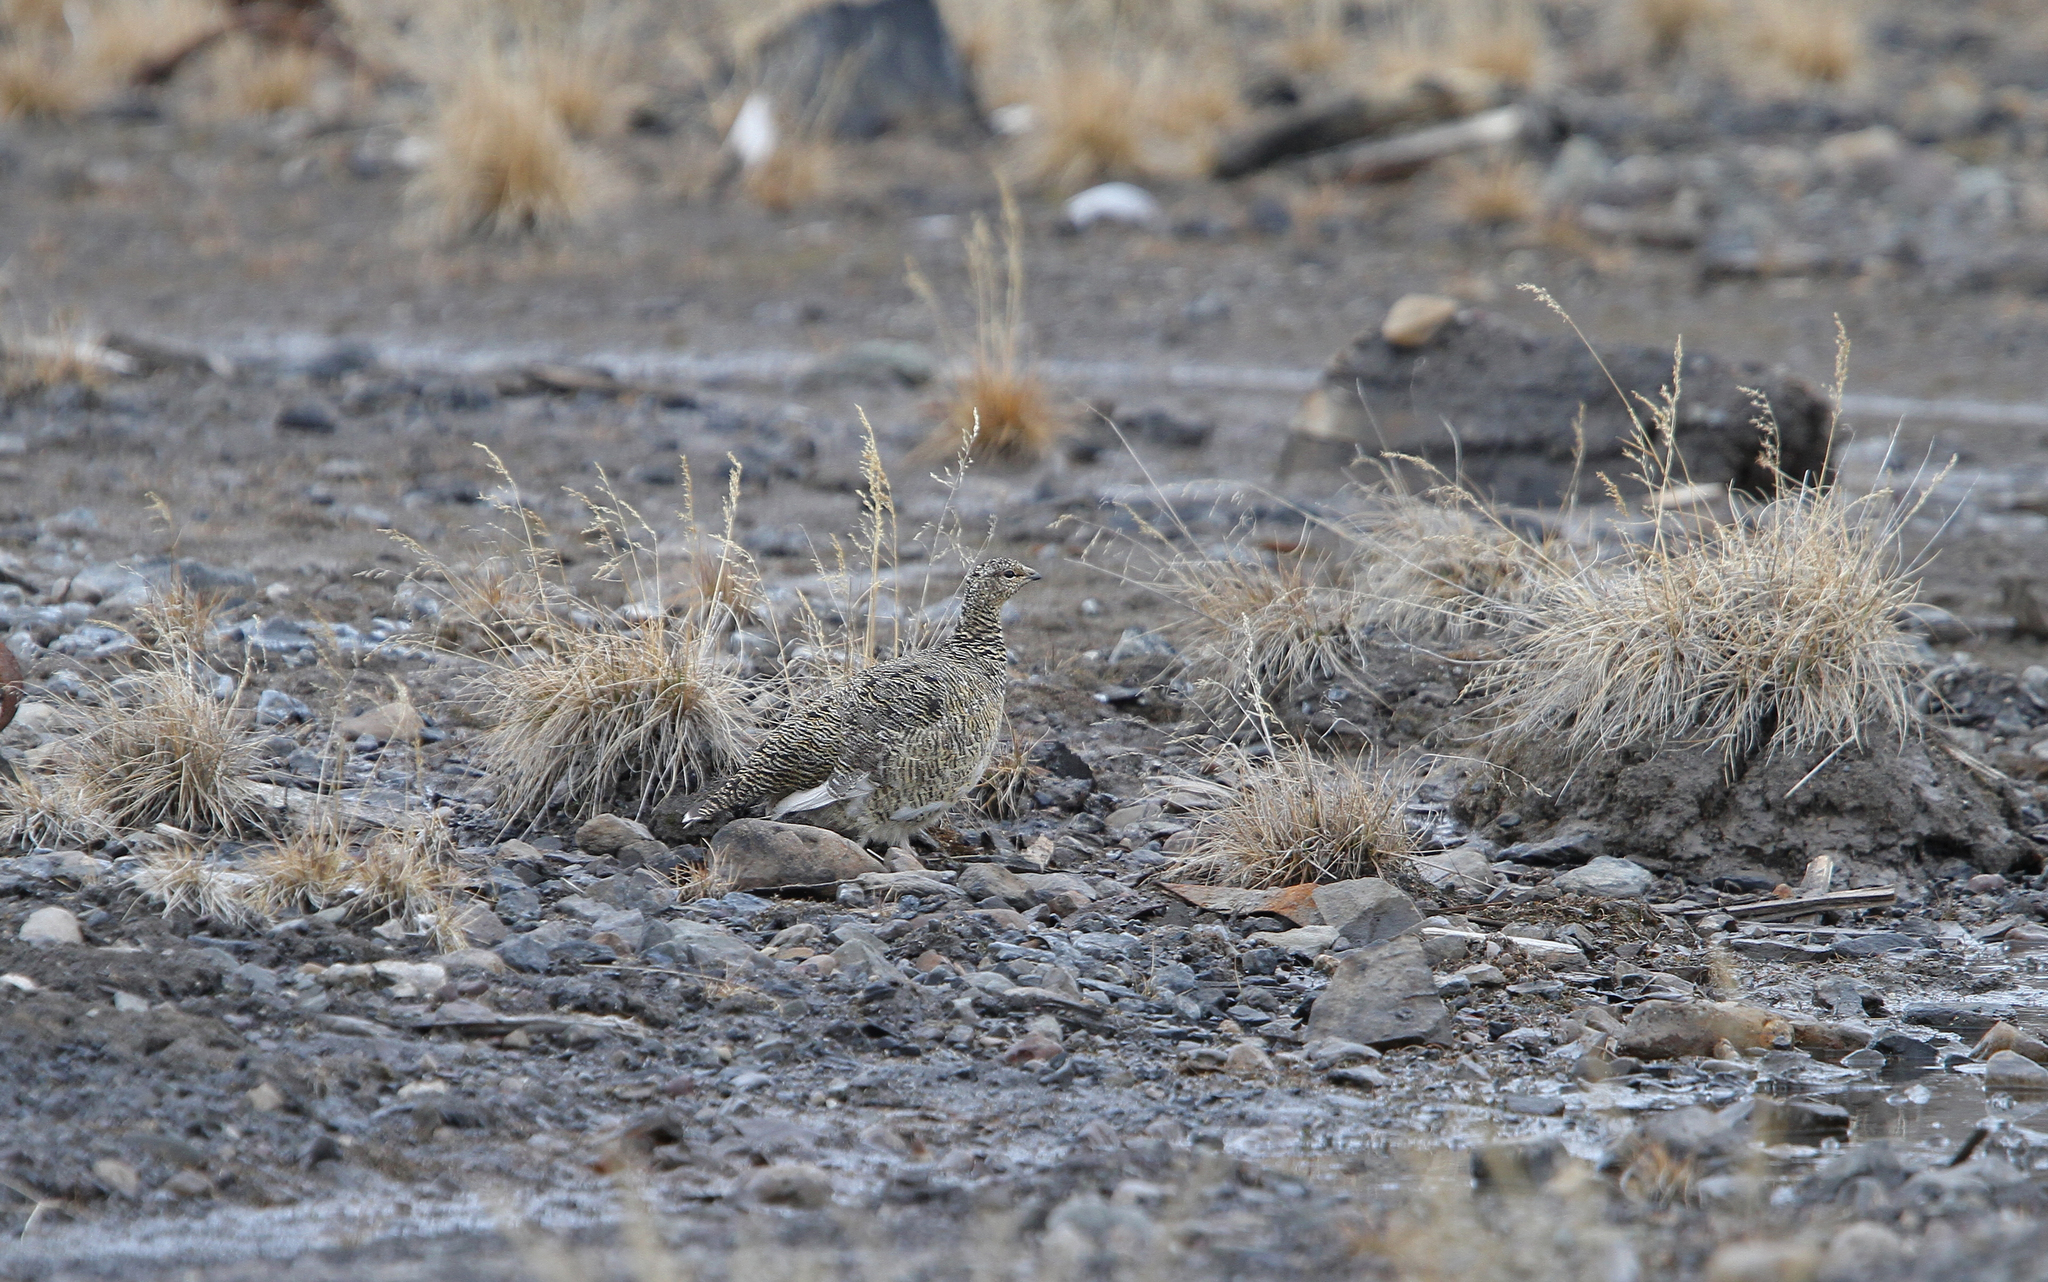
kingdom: Animalia
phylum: Chordata
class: Aves
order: Galliformes
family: Phasianidae
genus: Lagopus
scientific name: Lagopus muta
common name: Rock ptarmigan
